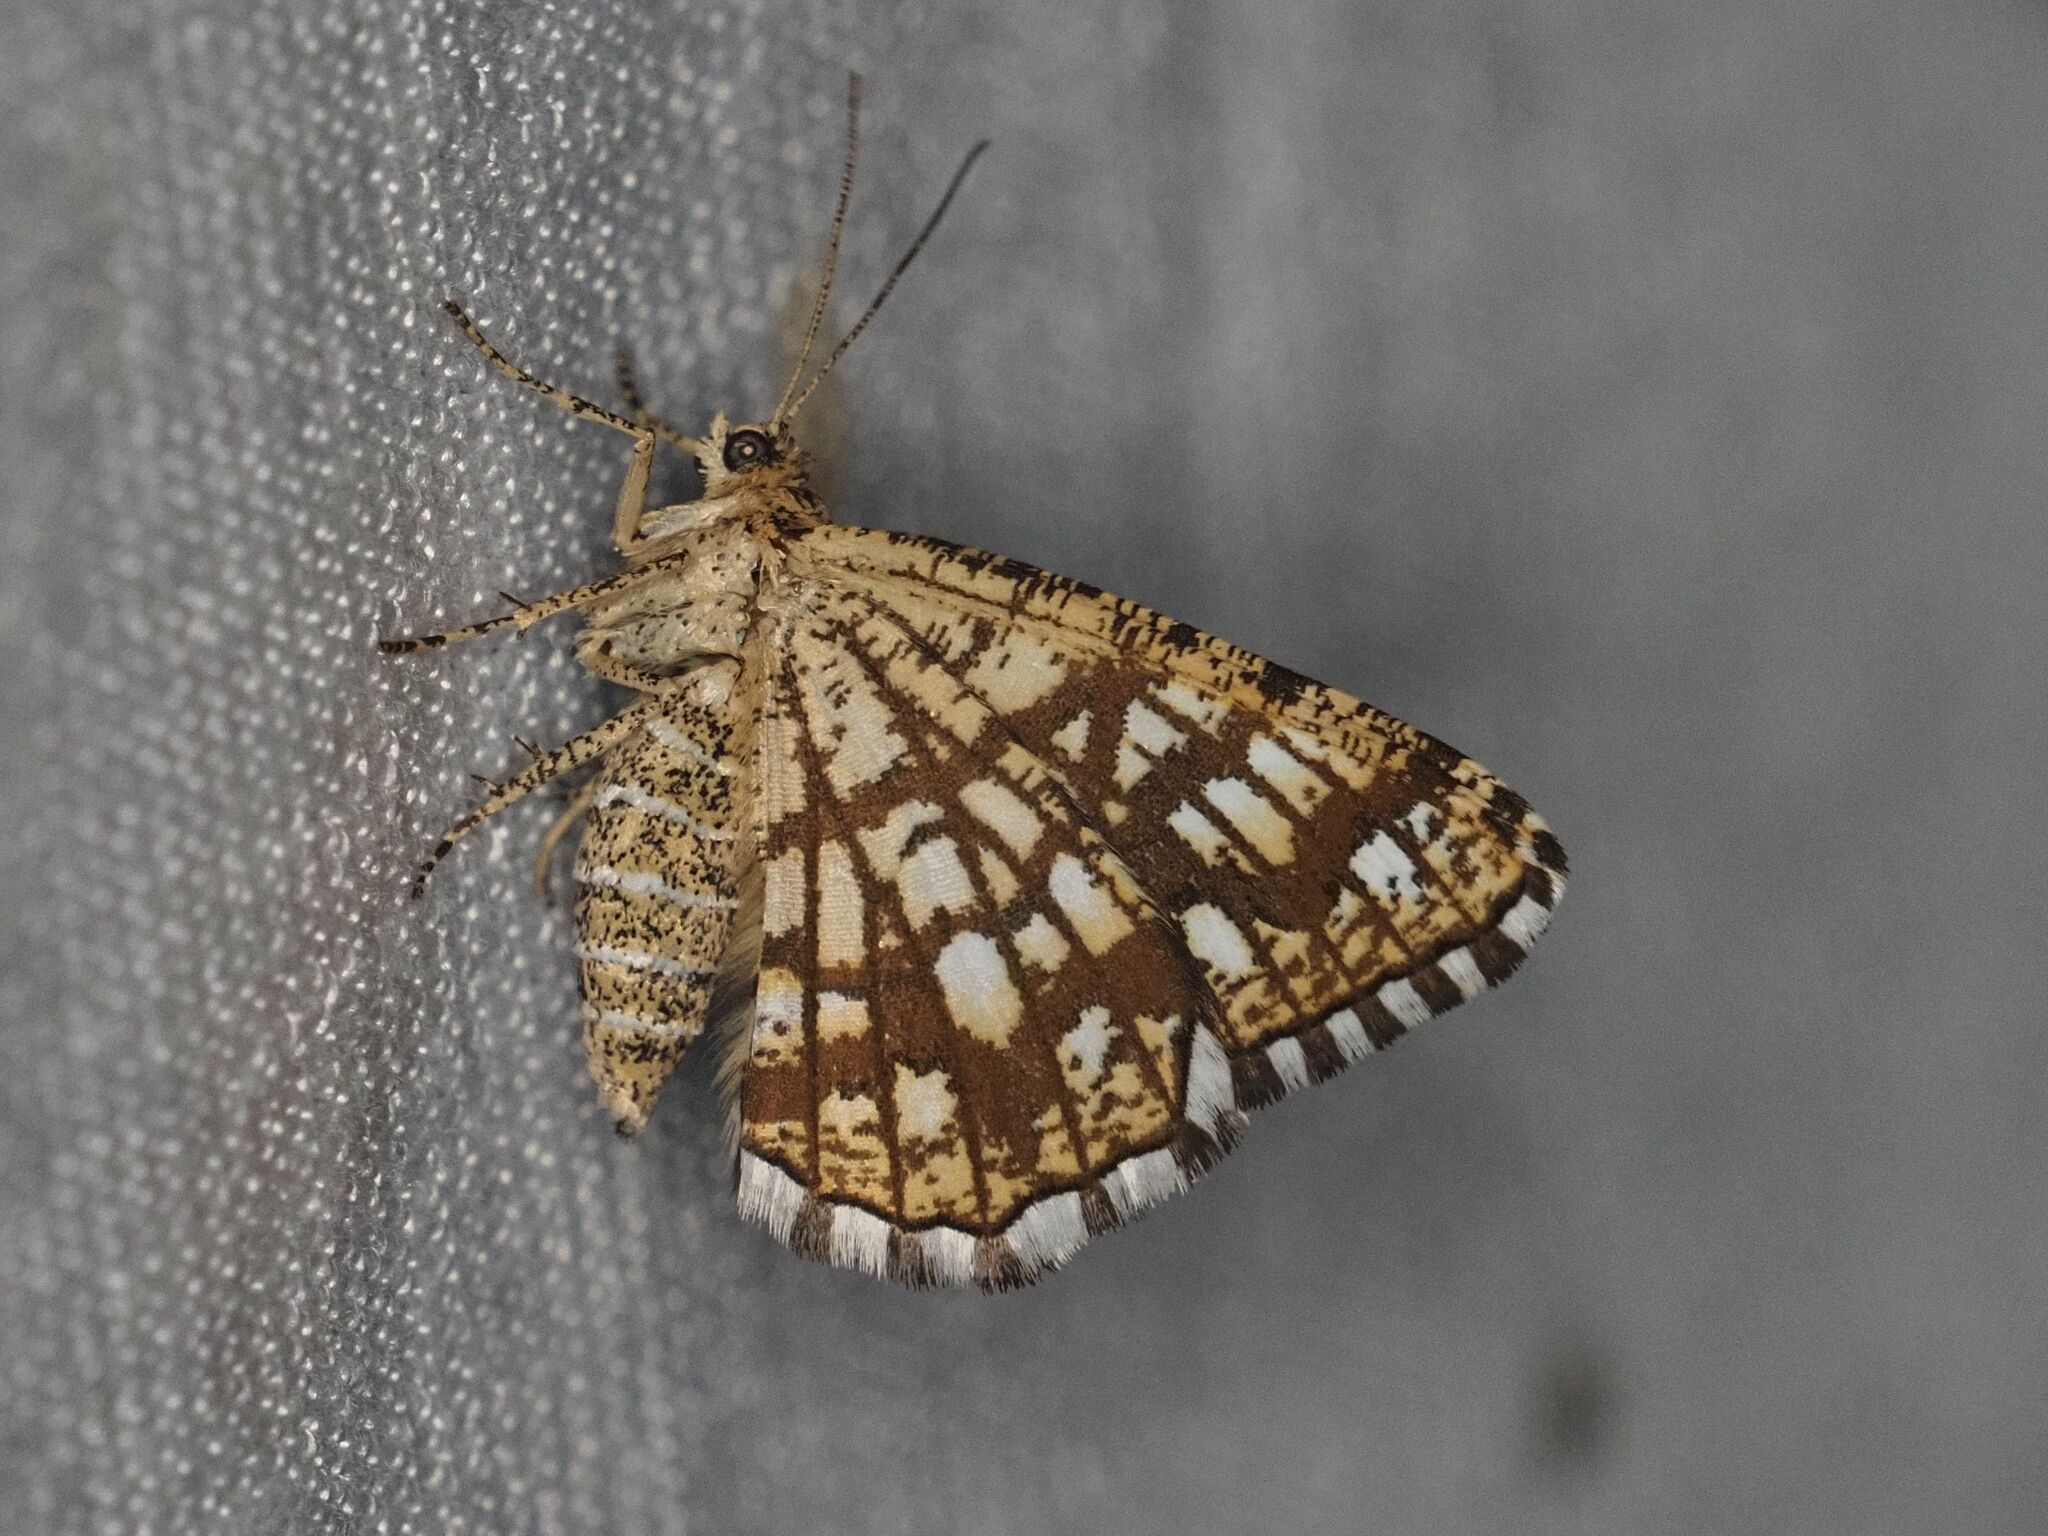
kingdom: Animalia
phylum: Arthropoda
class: Insecta
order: Lepidoptera
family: Geometridae
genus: Chiasmia
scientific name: Chiasmia clathrata
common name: Latticed heath
